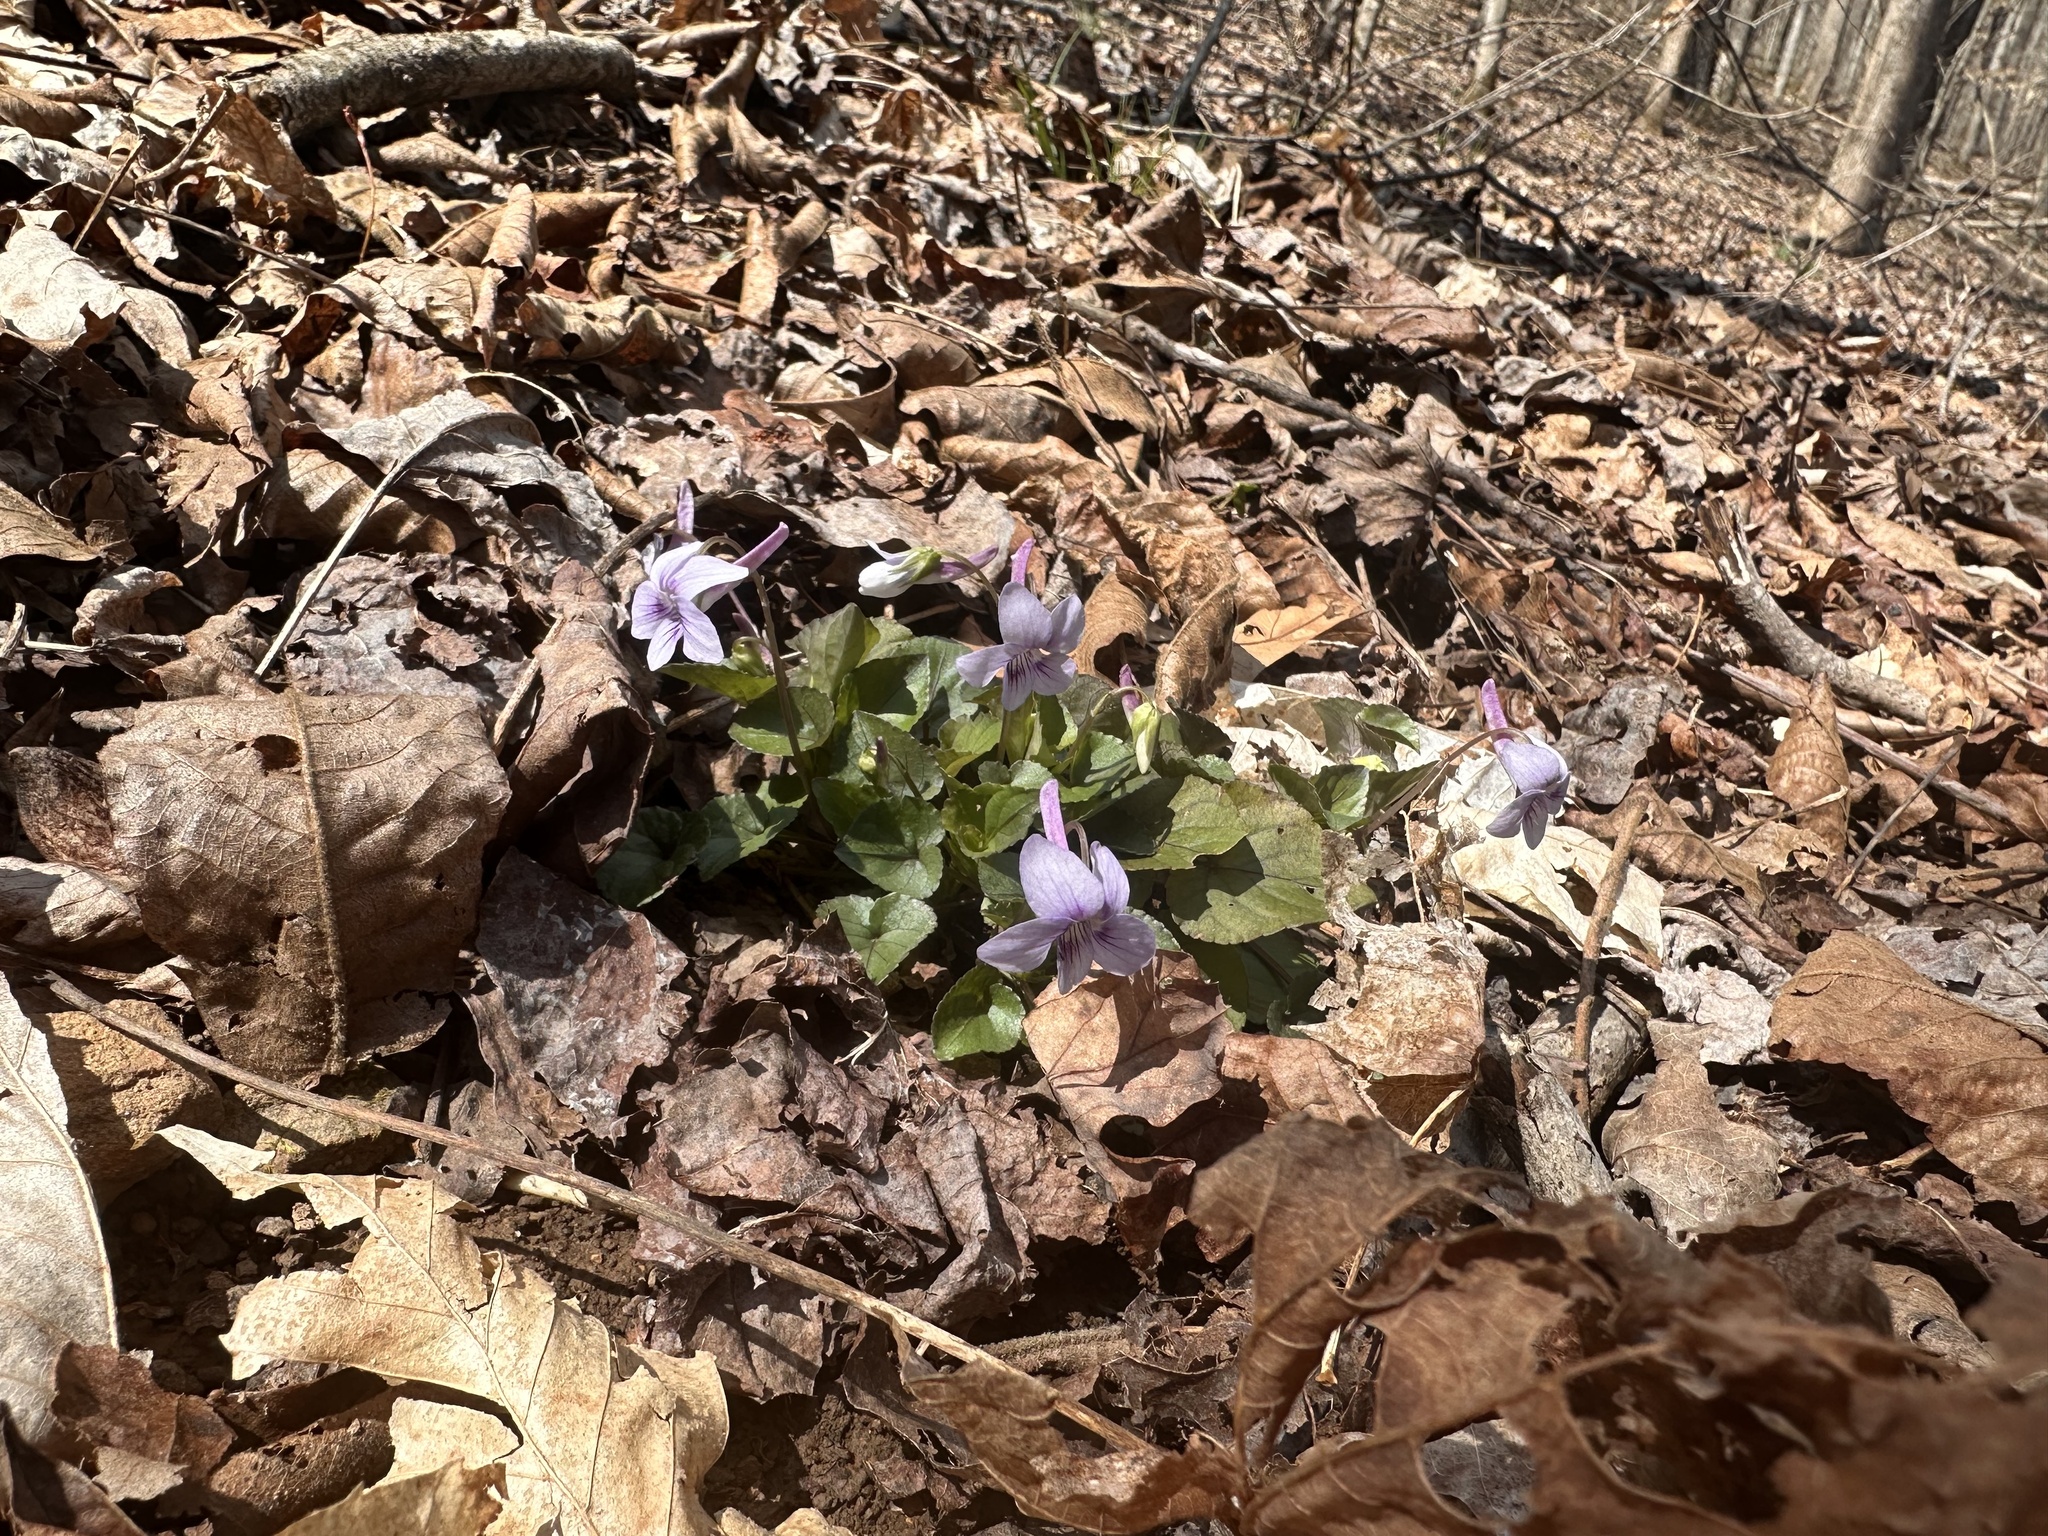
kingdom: Plantae
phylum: Tracheophyta
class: Magnoliopsida
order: Malpighiales
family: Violaceae
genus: Viola
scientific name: Viola rostrata
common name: Long-spur violet
